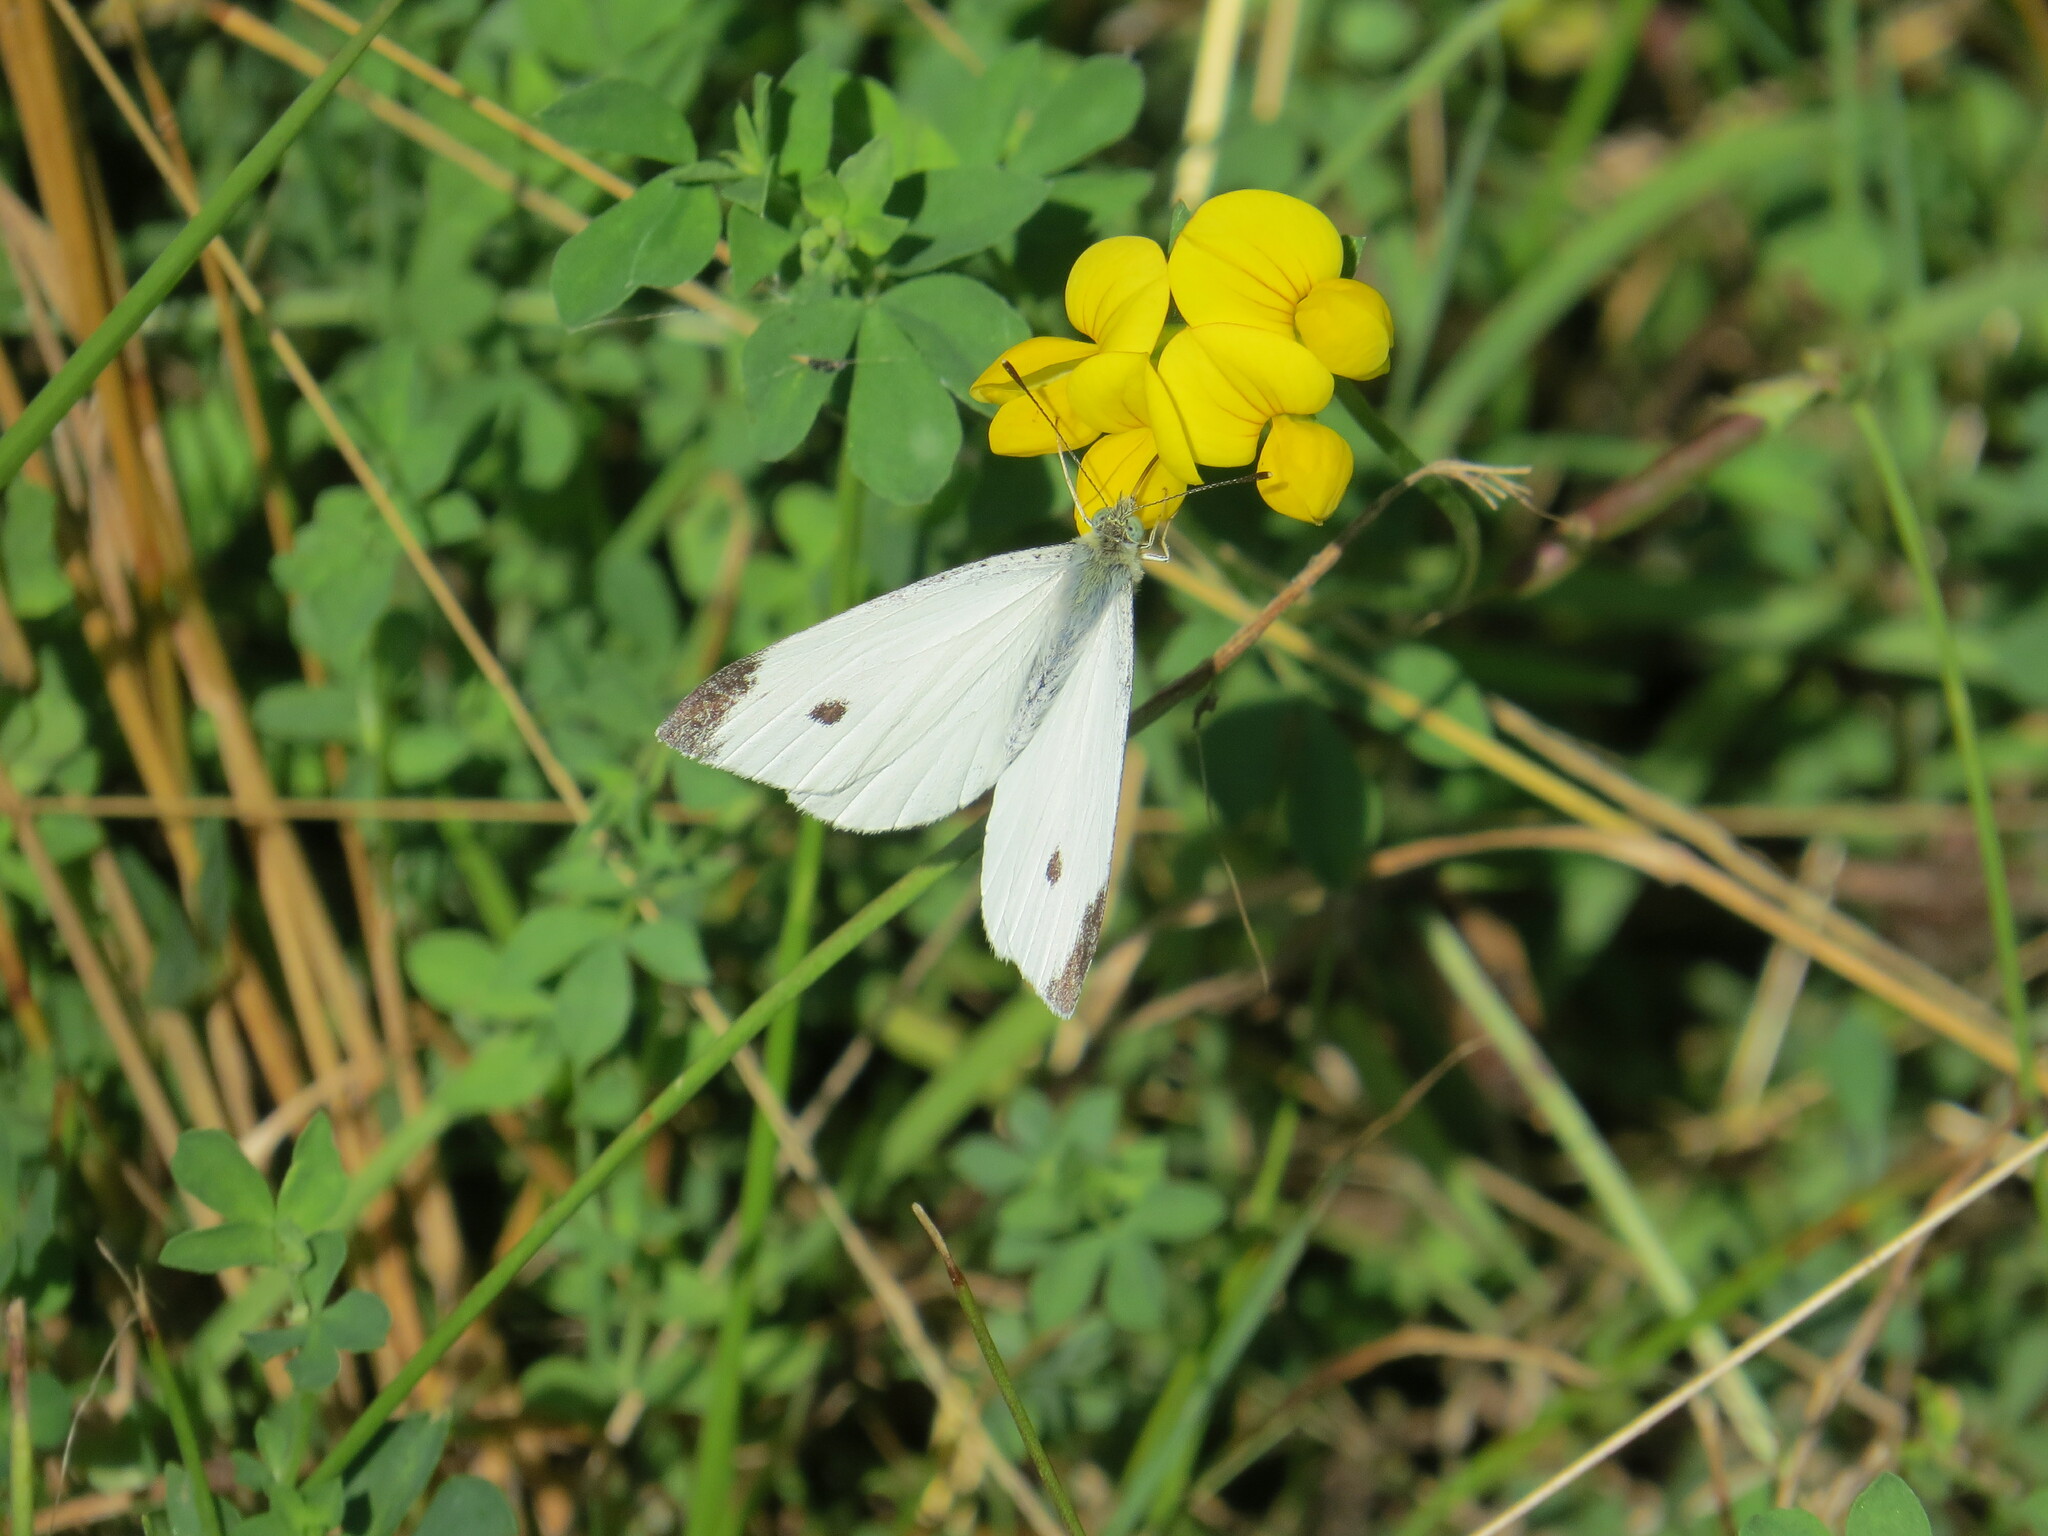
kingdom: Animalia
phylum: Arthropoda
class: Insecta
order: Lepidoptera
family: Pieridae
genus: Pieris
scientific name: Pieris rapae
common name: Small white
